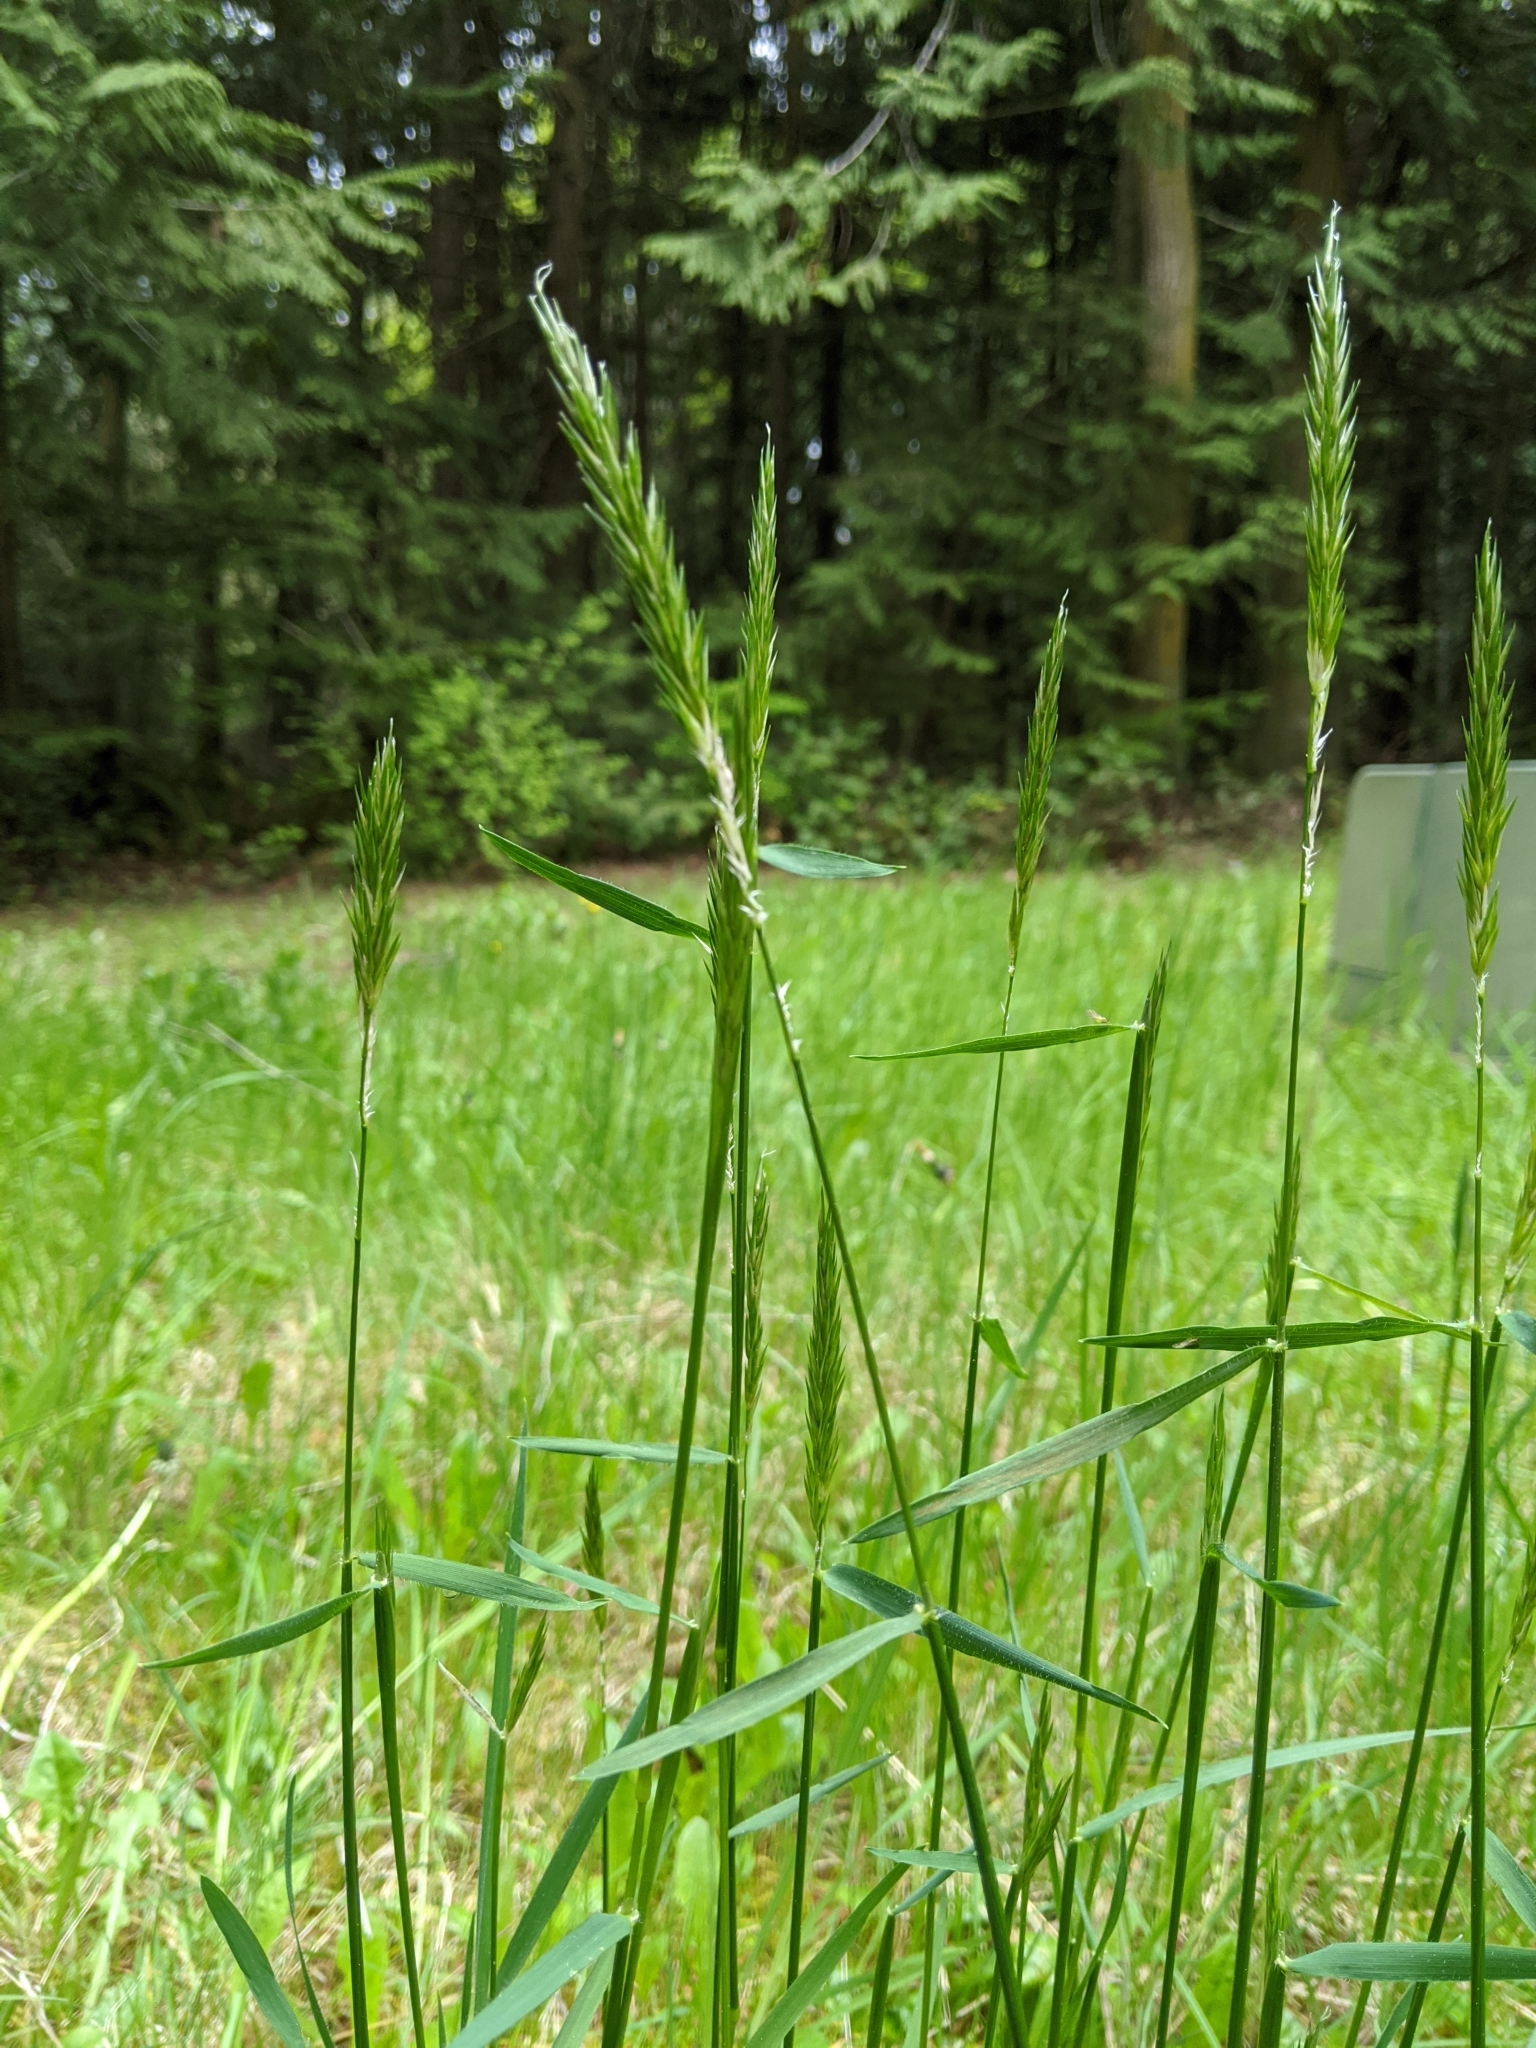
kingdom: Plantae
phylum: Tracheophyta
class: Liliopsida
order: Poales
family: Poaceae
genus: Anthoxanthum
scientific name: Anthoxanthum odoratum
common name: Sweet vernalgrass
